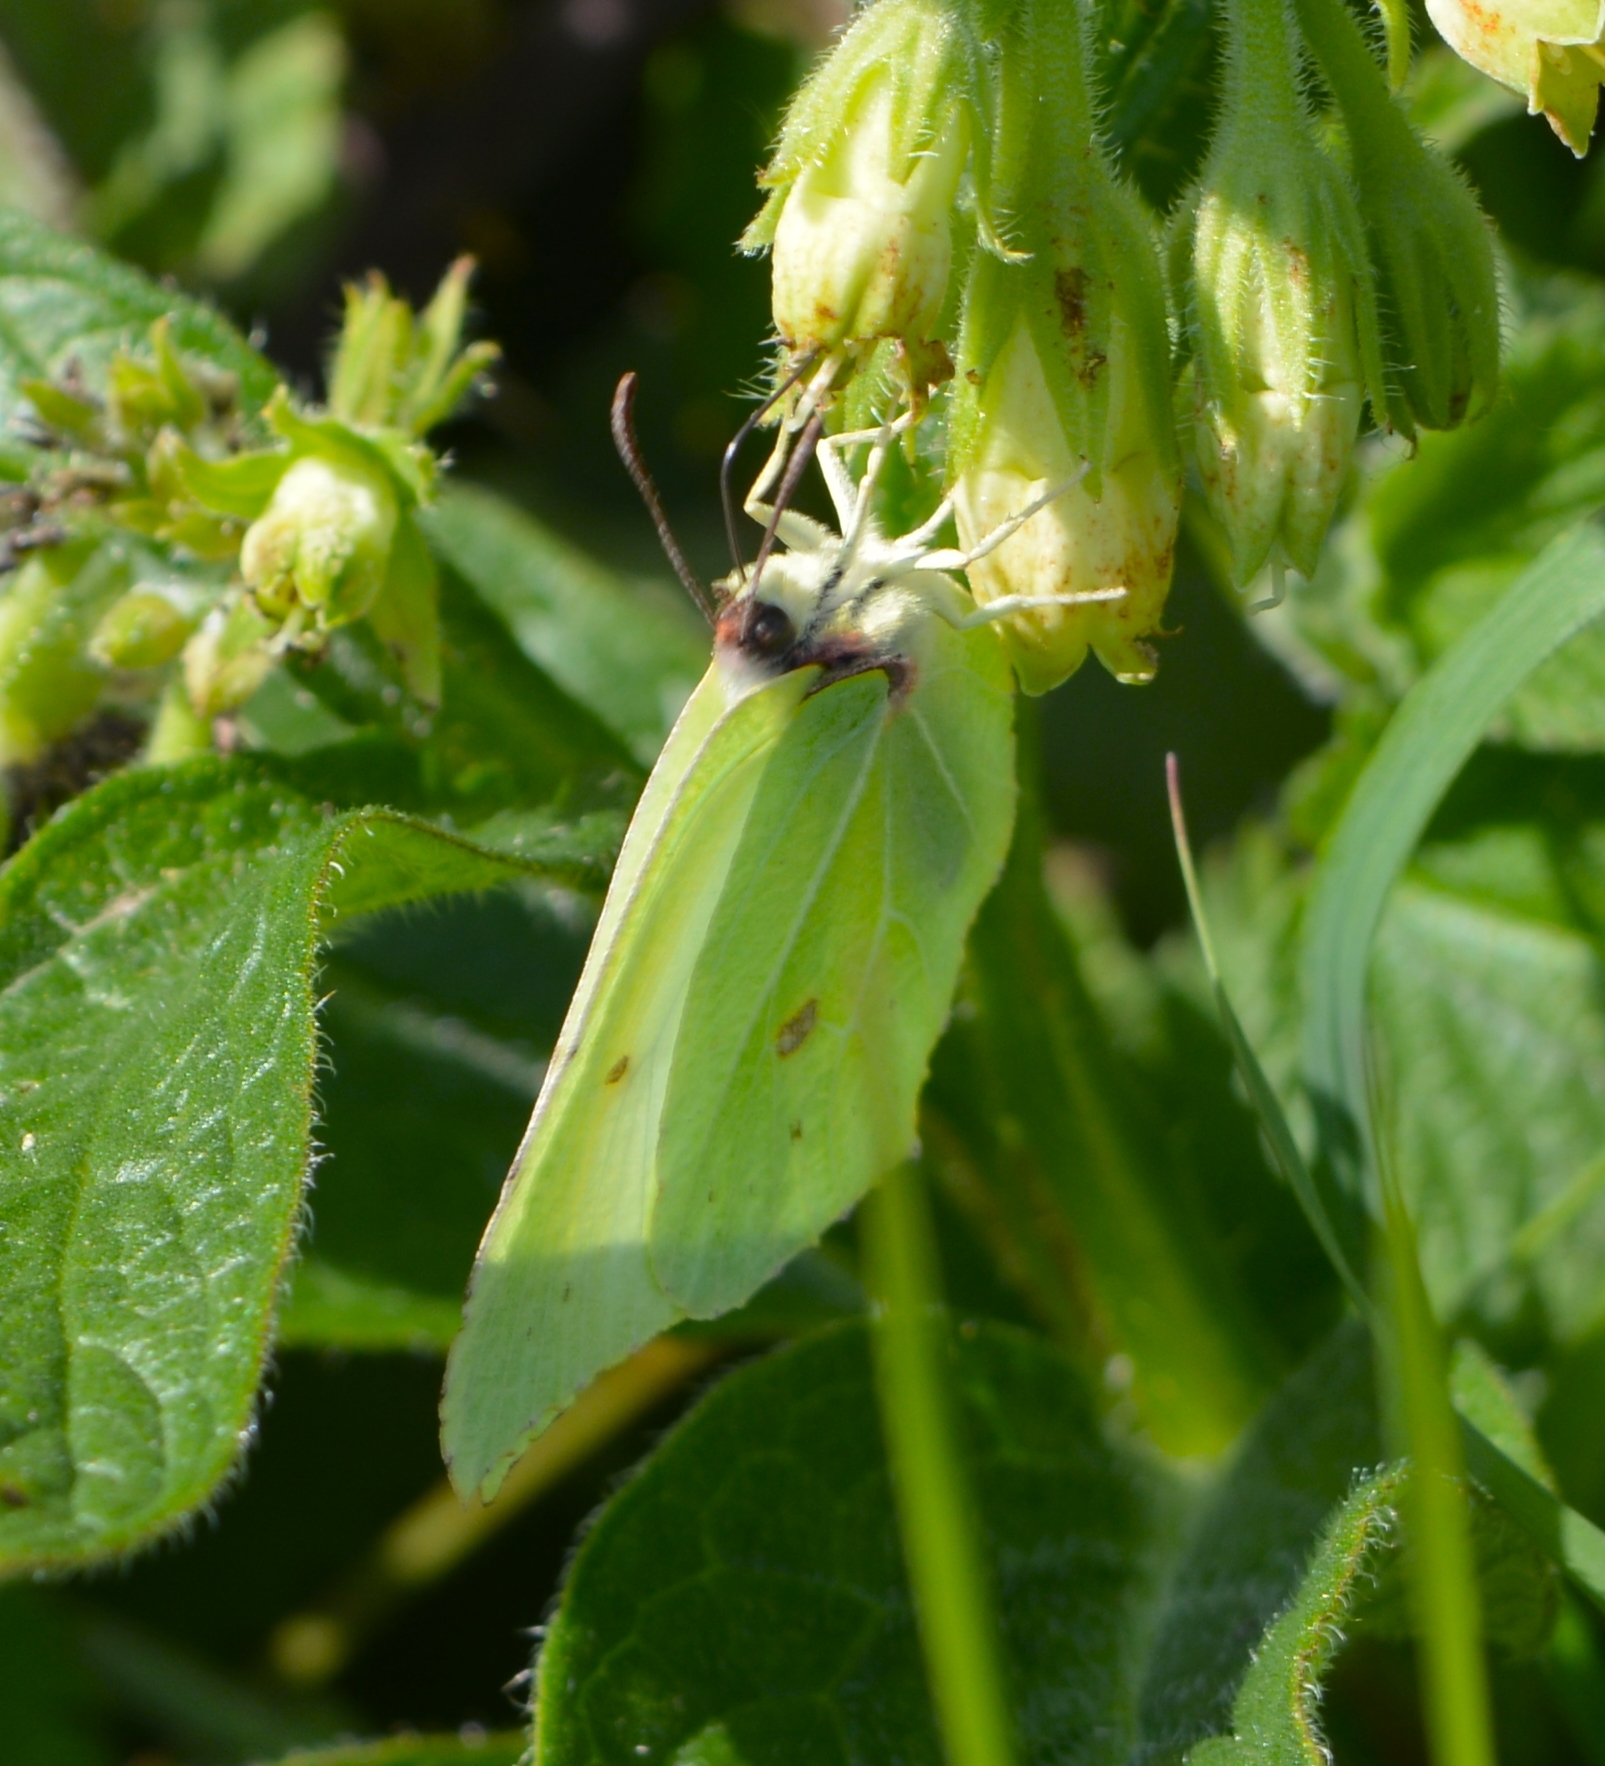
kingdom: Animalia
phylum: Arthropoda
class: Insecta
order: Lepidoptera
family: Pieridae
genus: Gonepteryx
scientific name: Gonepteryx rhamni
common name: Brimstone
